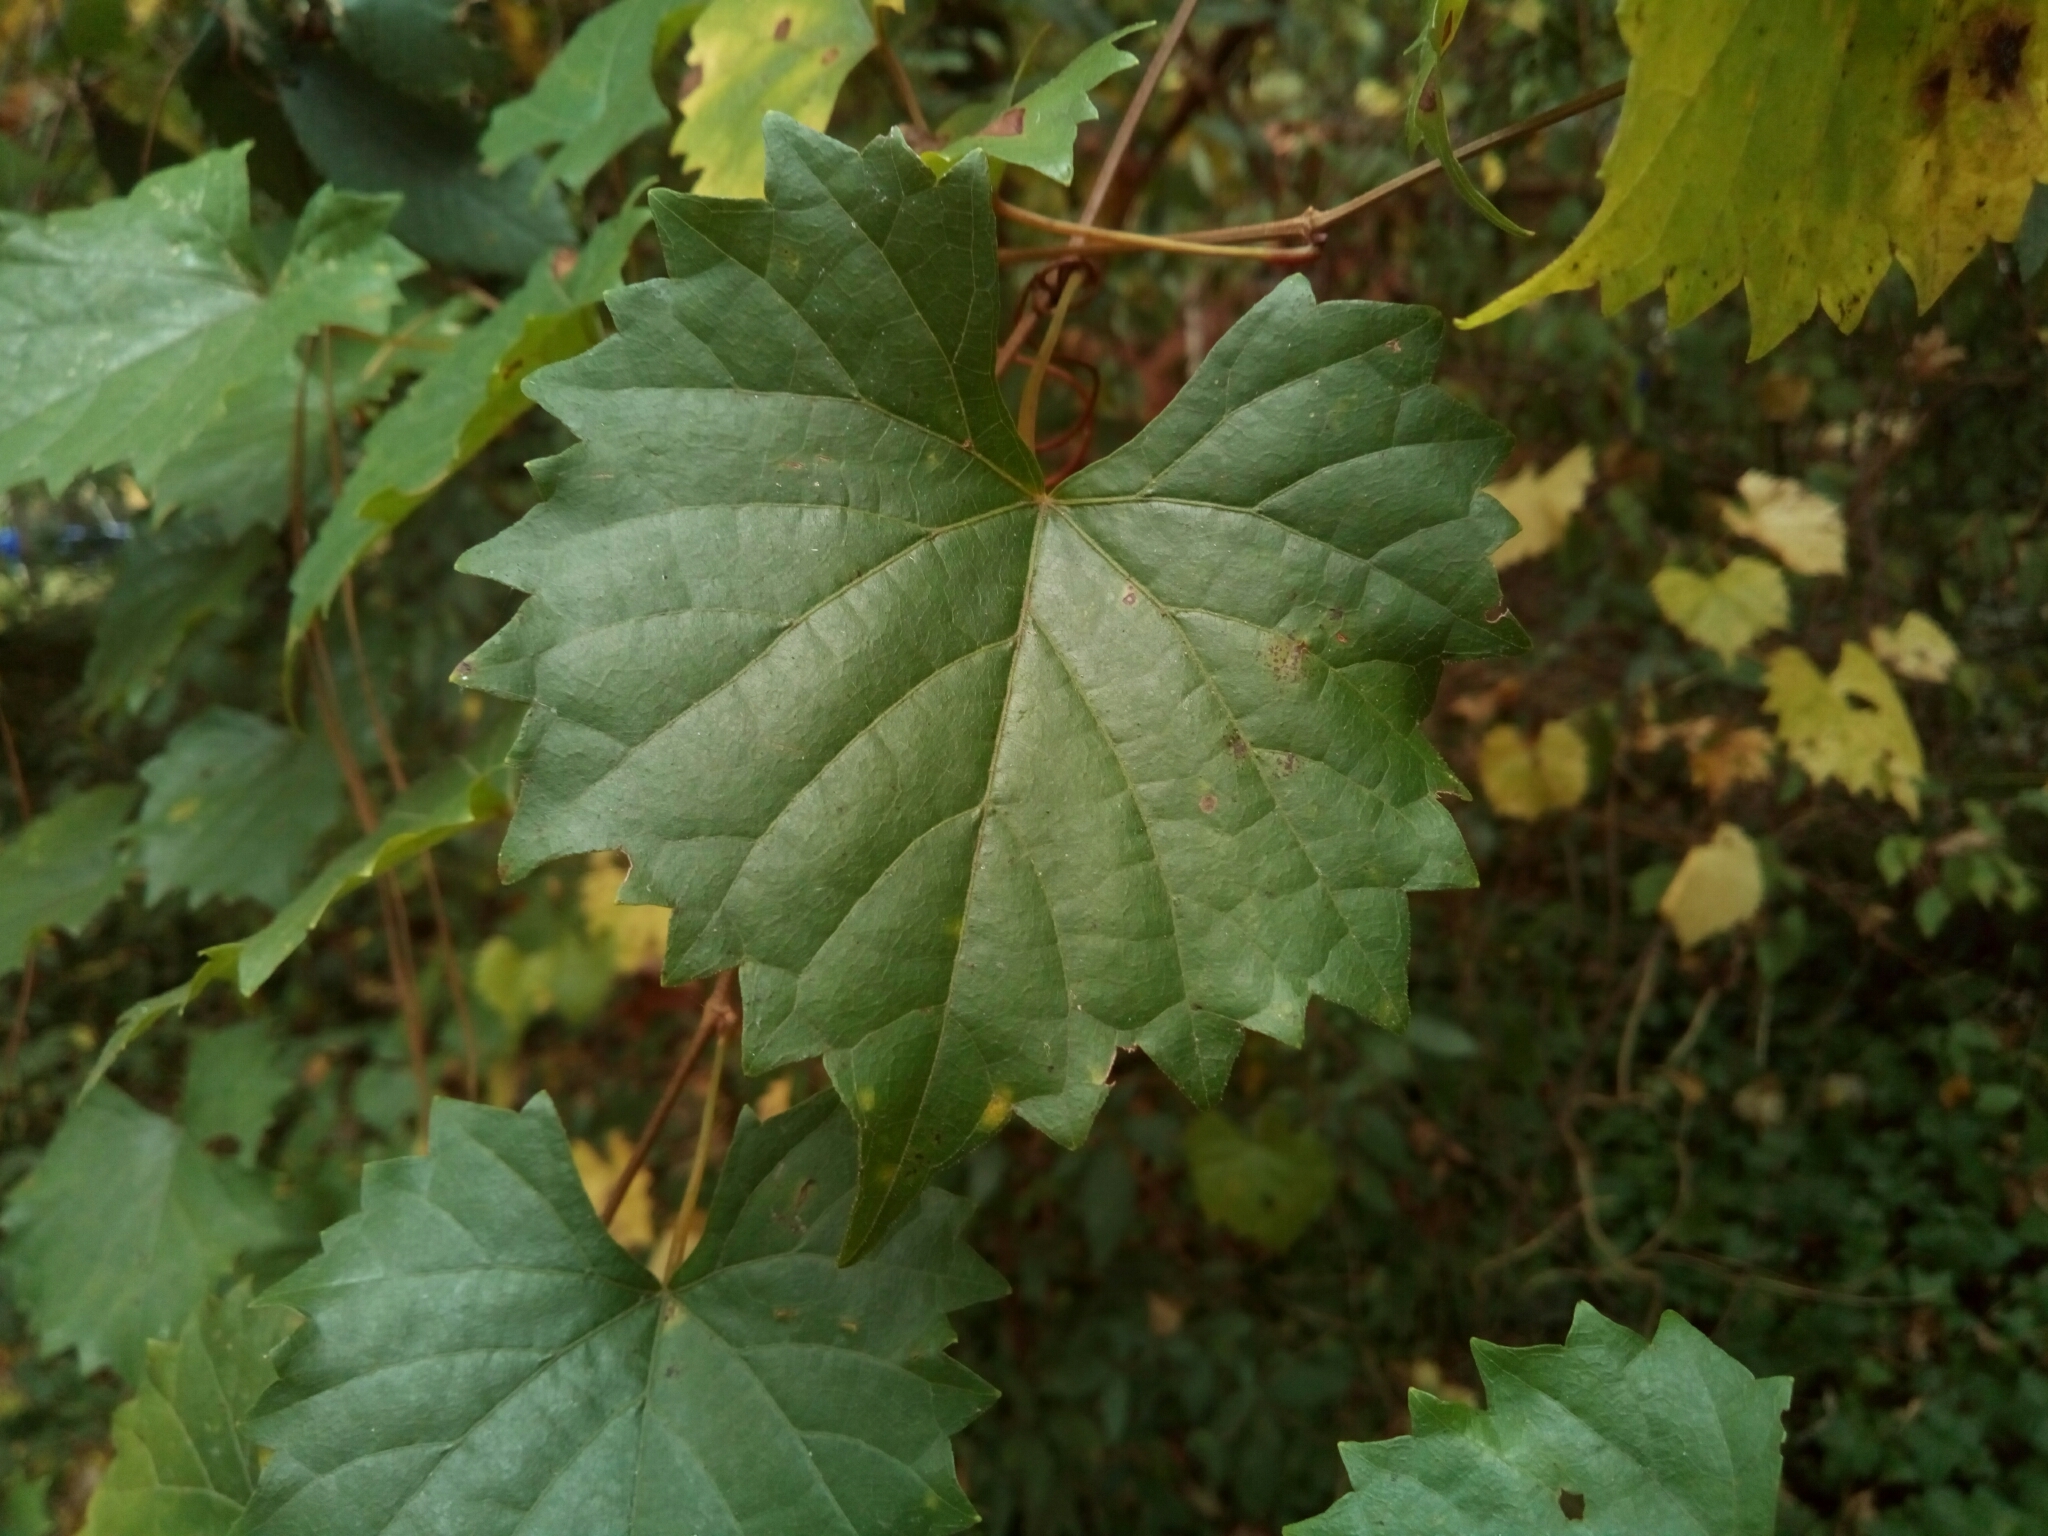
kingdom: Plantae
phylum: Tracheophyta
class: Magnoliopsida
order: Vitales
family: Vitaceae
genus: Vitis
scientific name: Vitis rotundifolia
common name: Muscadine grape
